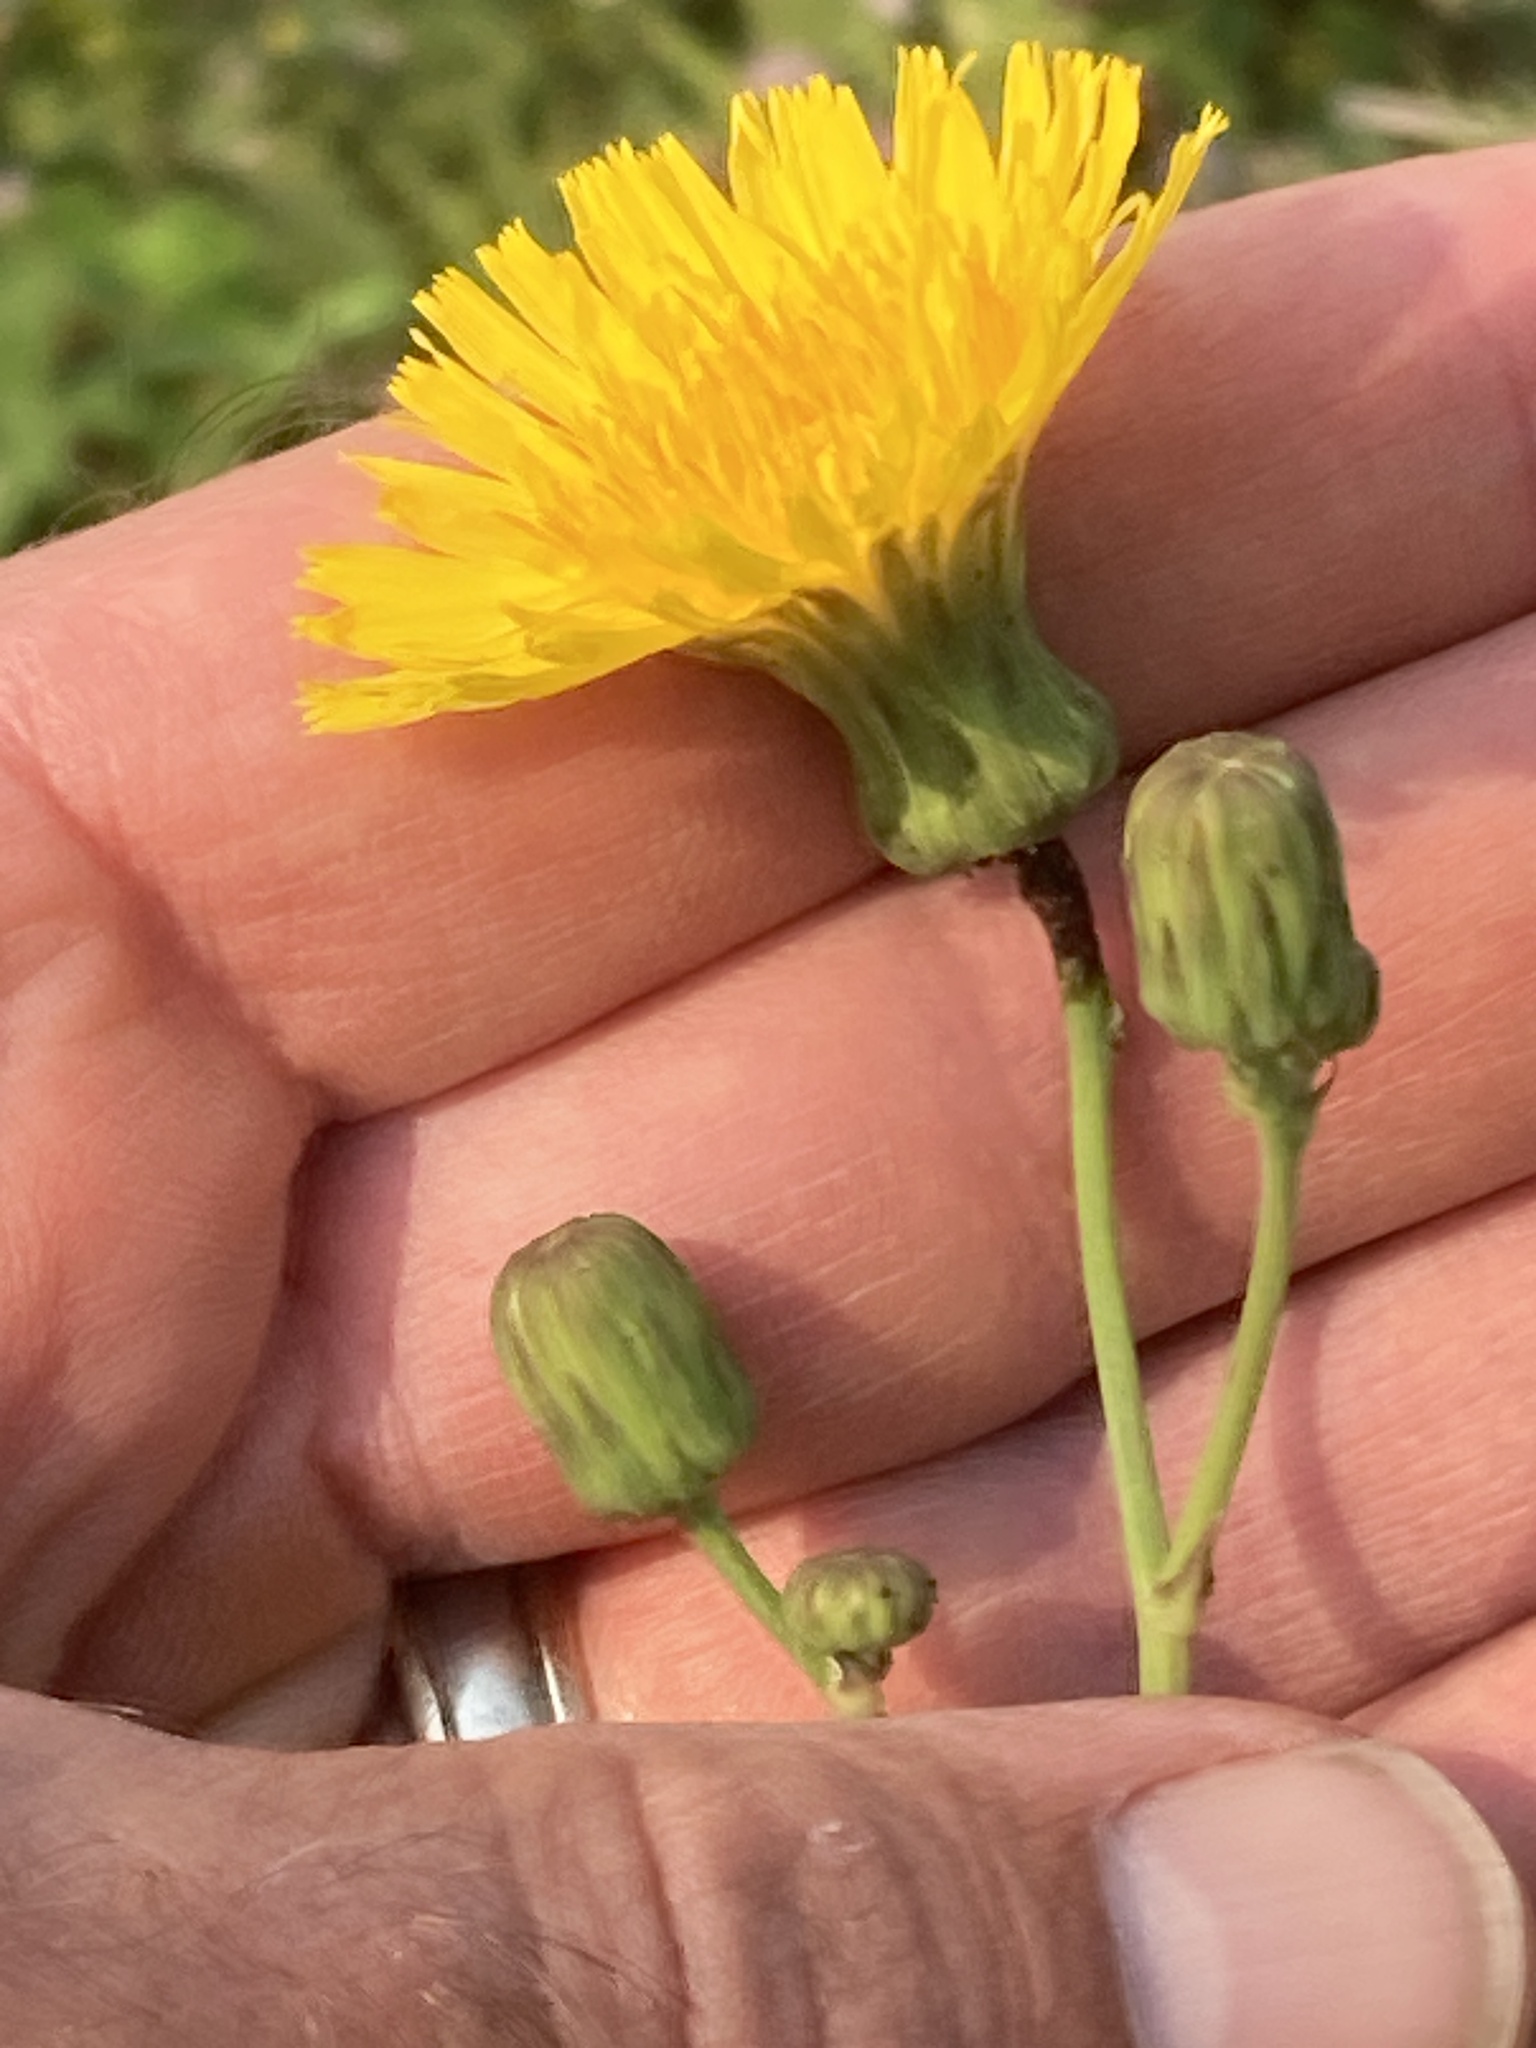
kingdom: Plantae
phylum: Tracheophyta
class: Magnoliopsida
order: Asterales
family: Asteraceae
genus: Sonchus
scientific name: Sonchus arvensis
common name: Perennial sow-thistle
